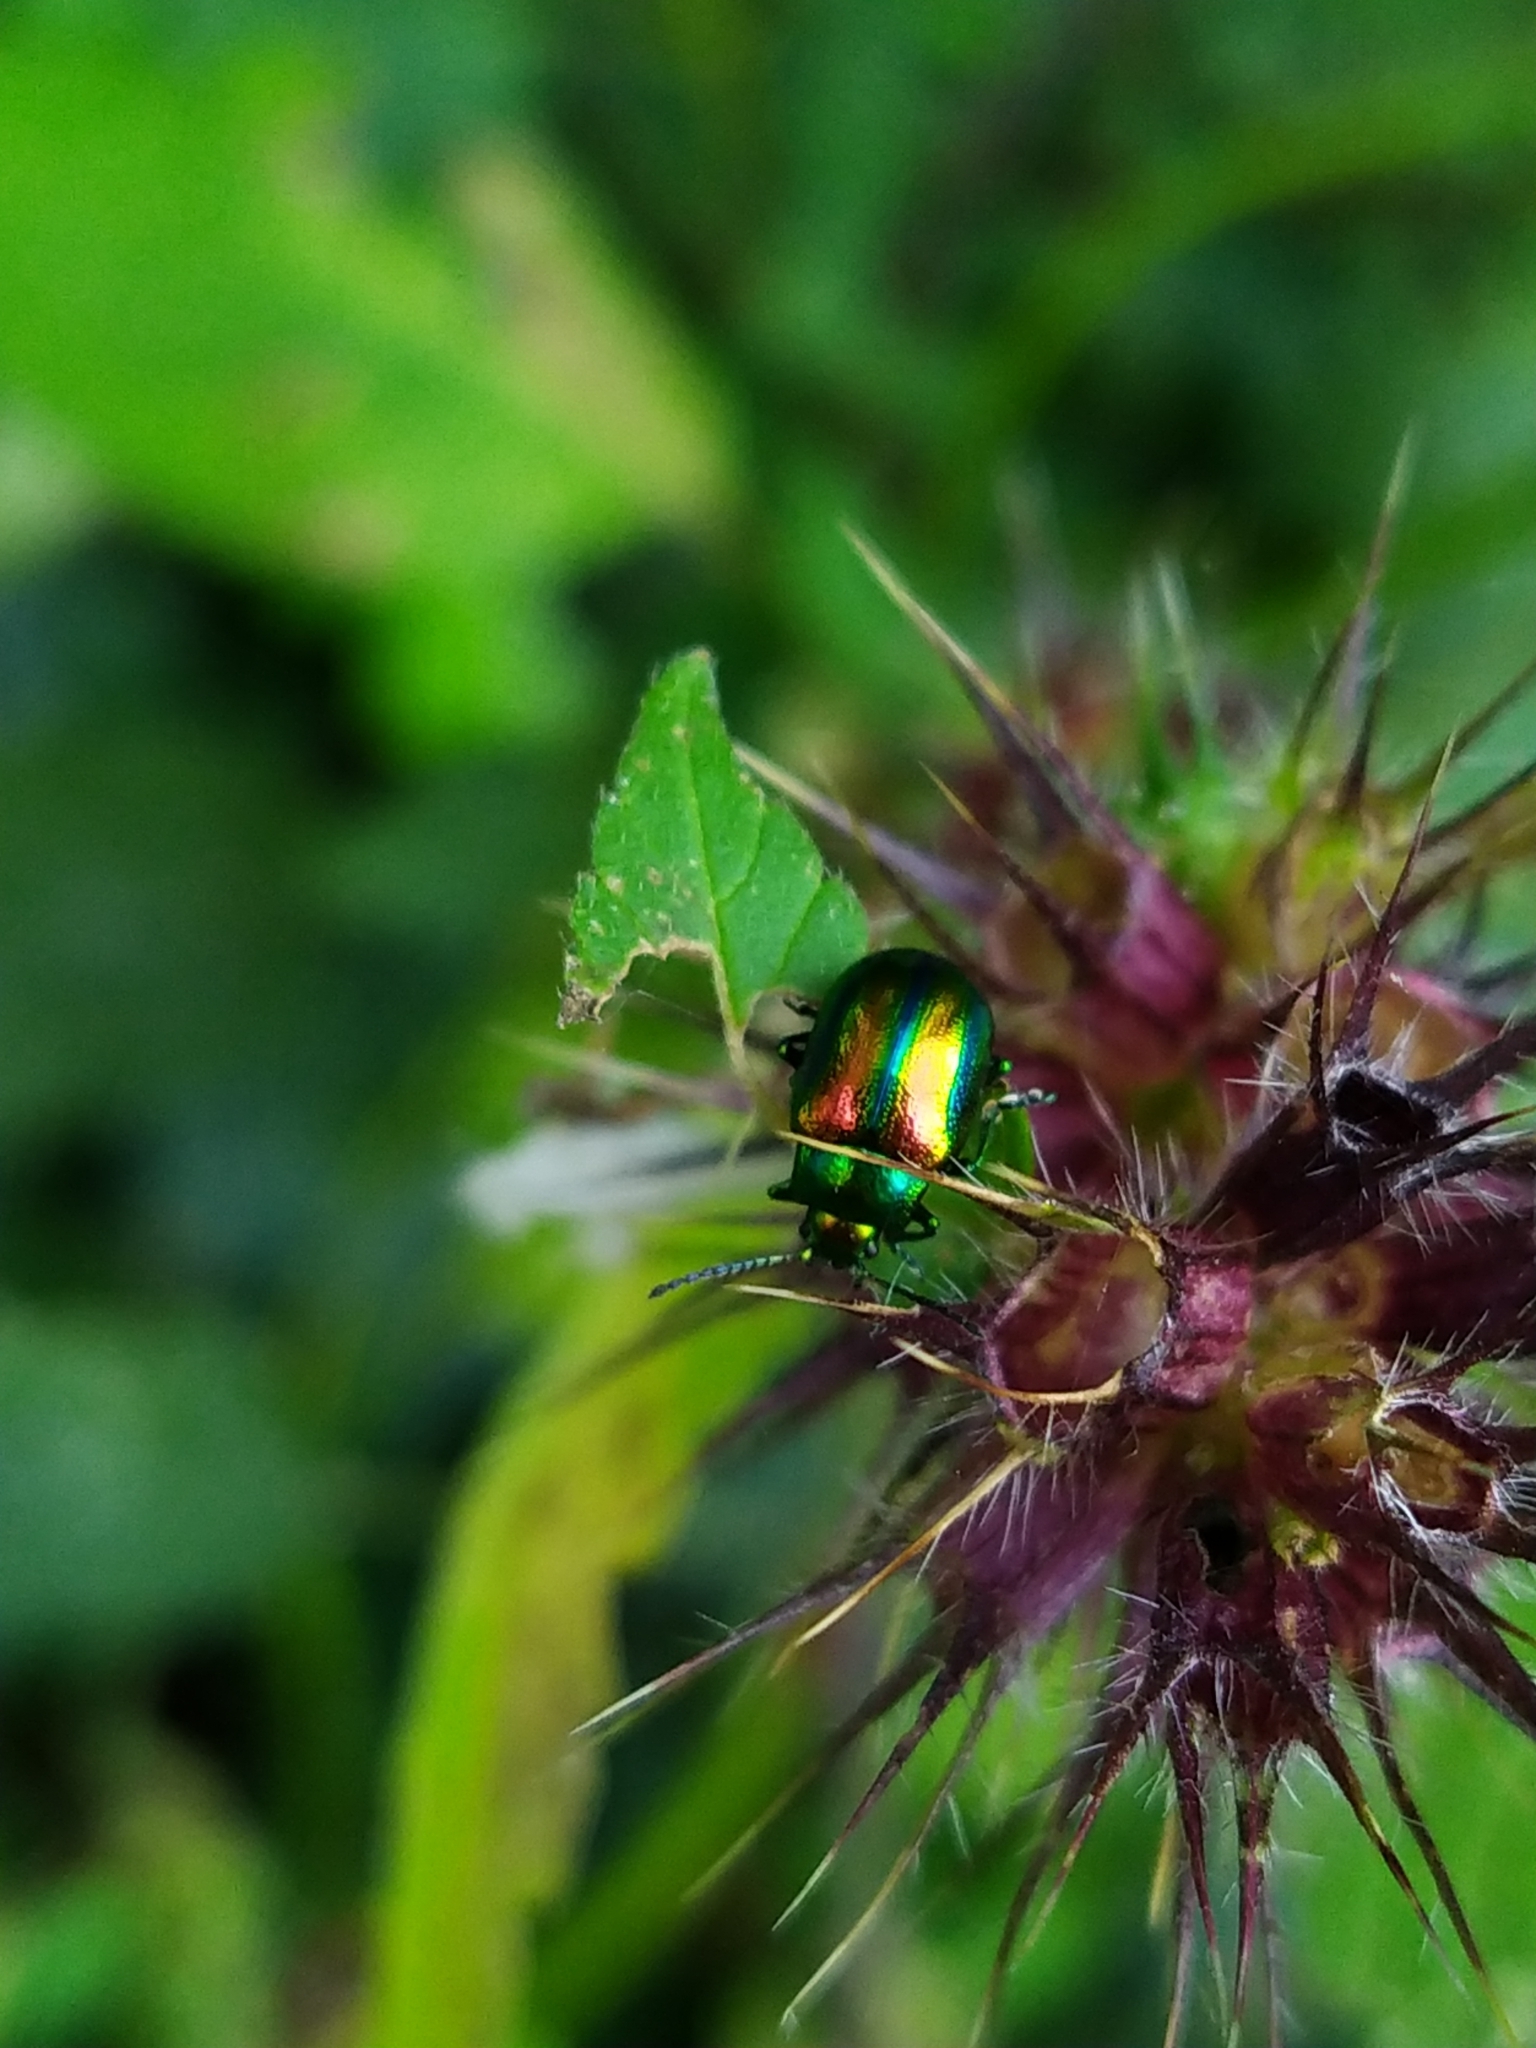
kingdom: Animalia
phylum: Arthropoda
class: Insecta
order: Coleoptera
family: Chrysomelidae
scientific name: Chrysomelidae
